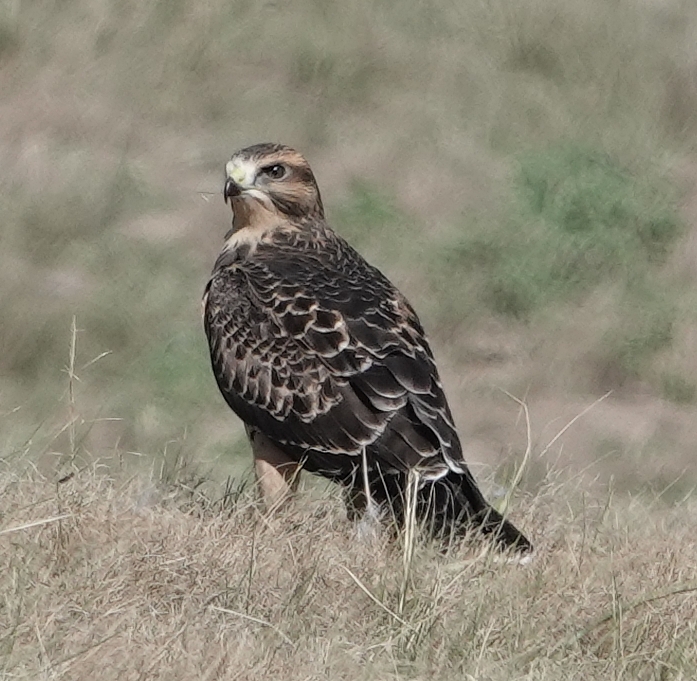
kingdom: Animalia
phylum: Chordata
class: Aves
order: Accipitriformes
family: Accipitridae
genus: Buteo
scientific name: Buteo swainsoni
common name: Swainson's hawk
